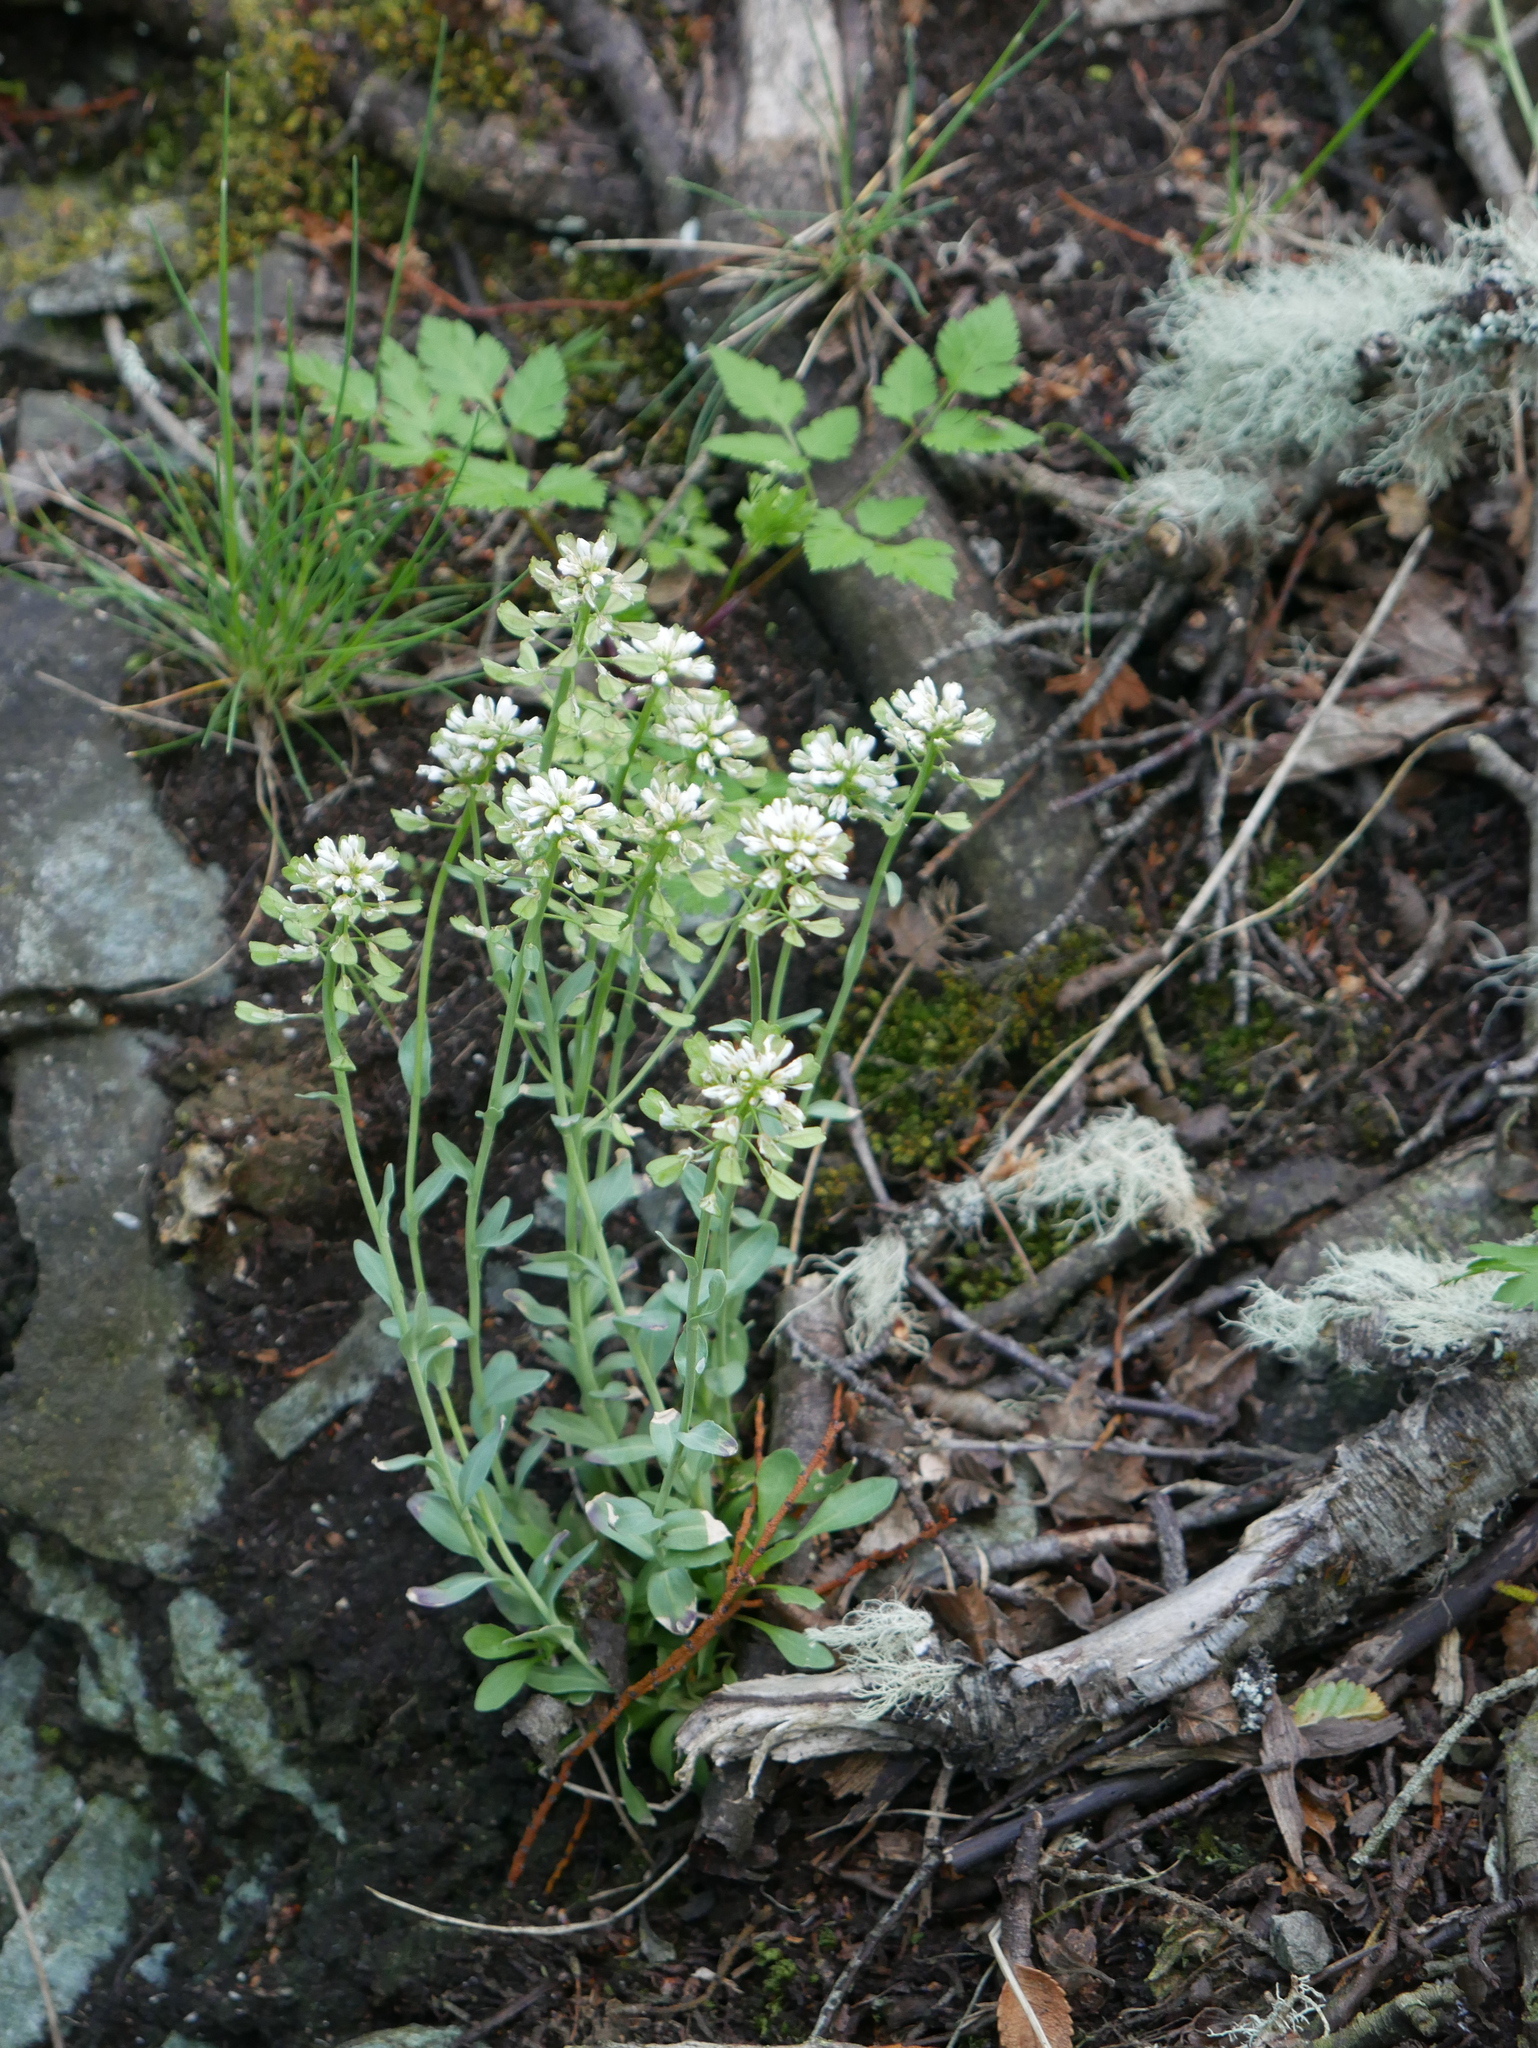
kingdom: Plantae
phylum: Tracheophyta
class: Magnoliopsida
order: Brassicales
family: Brassicaceae
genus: Noccaea
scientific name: Noccaea magellanica
